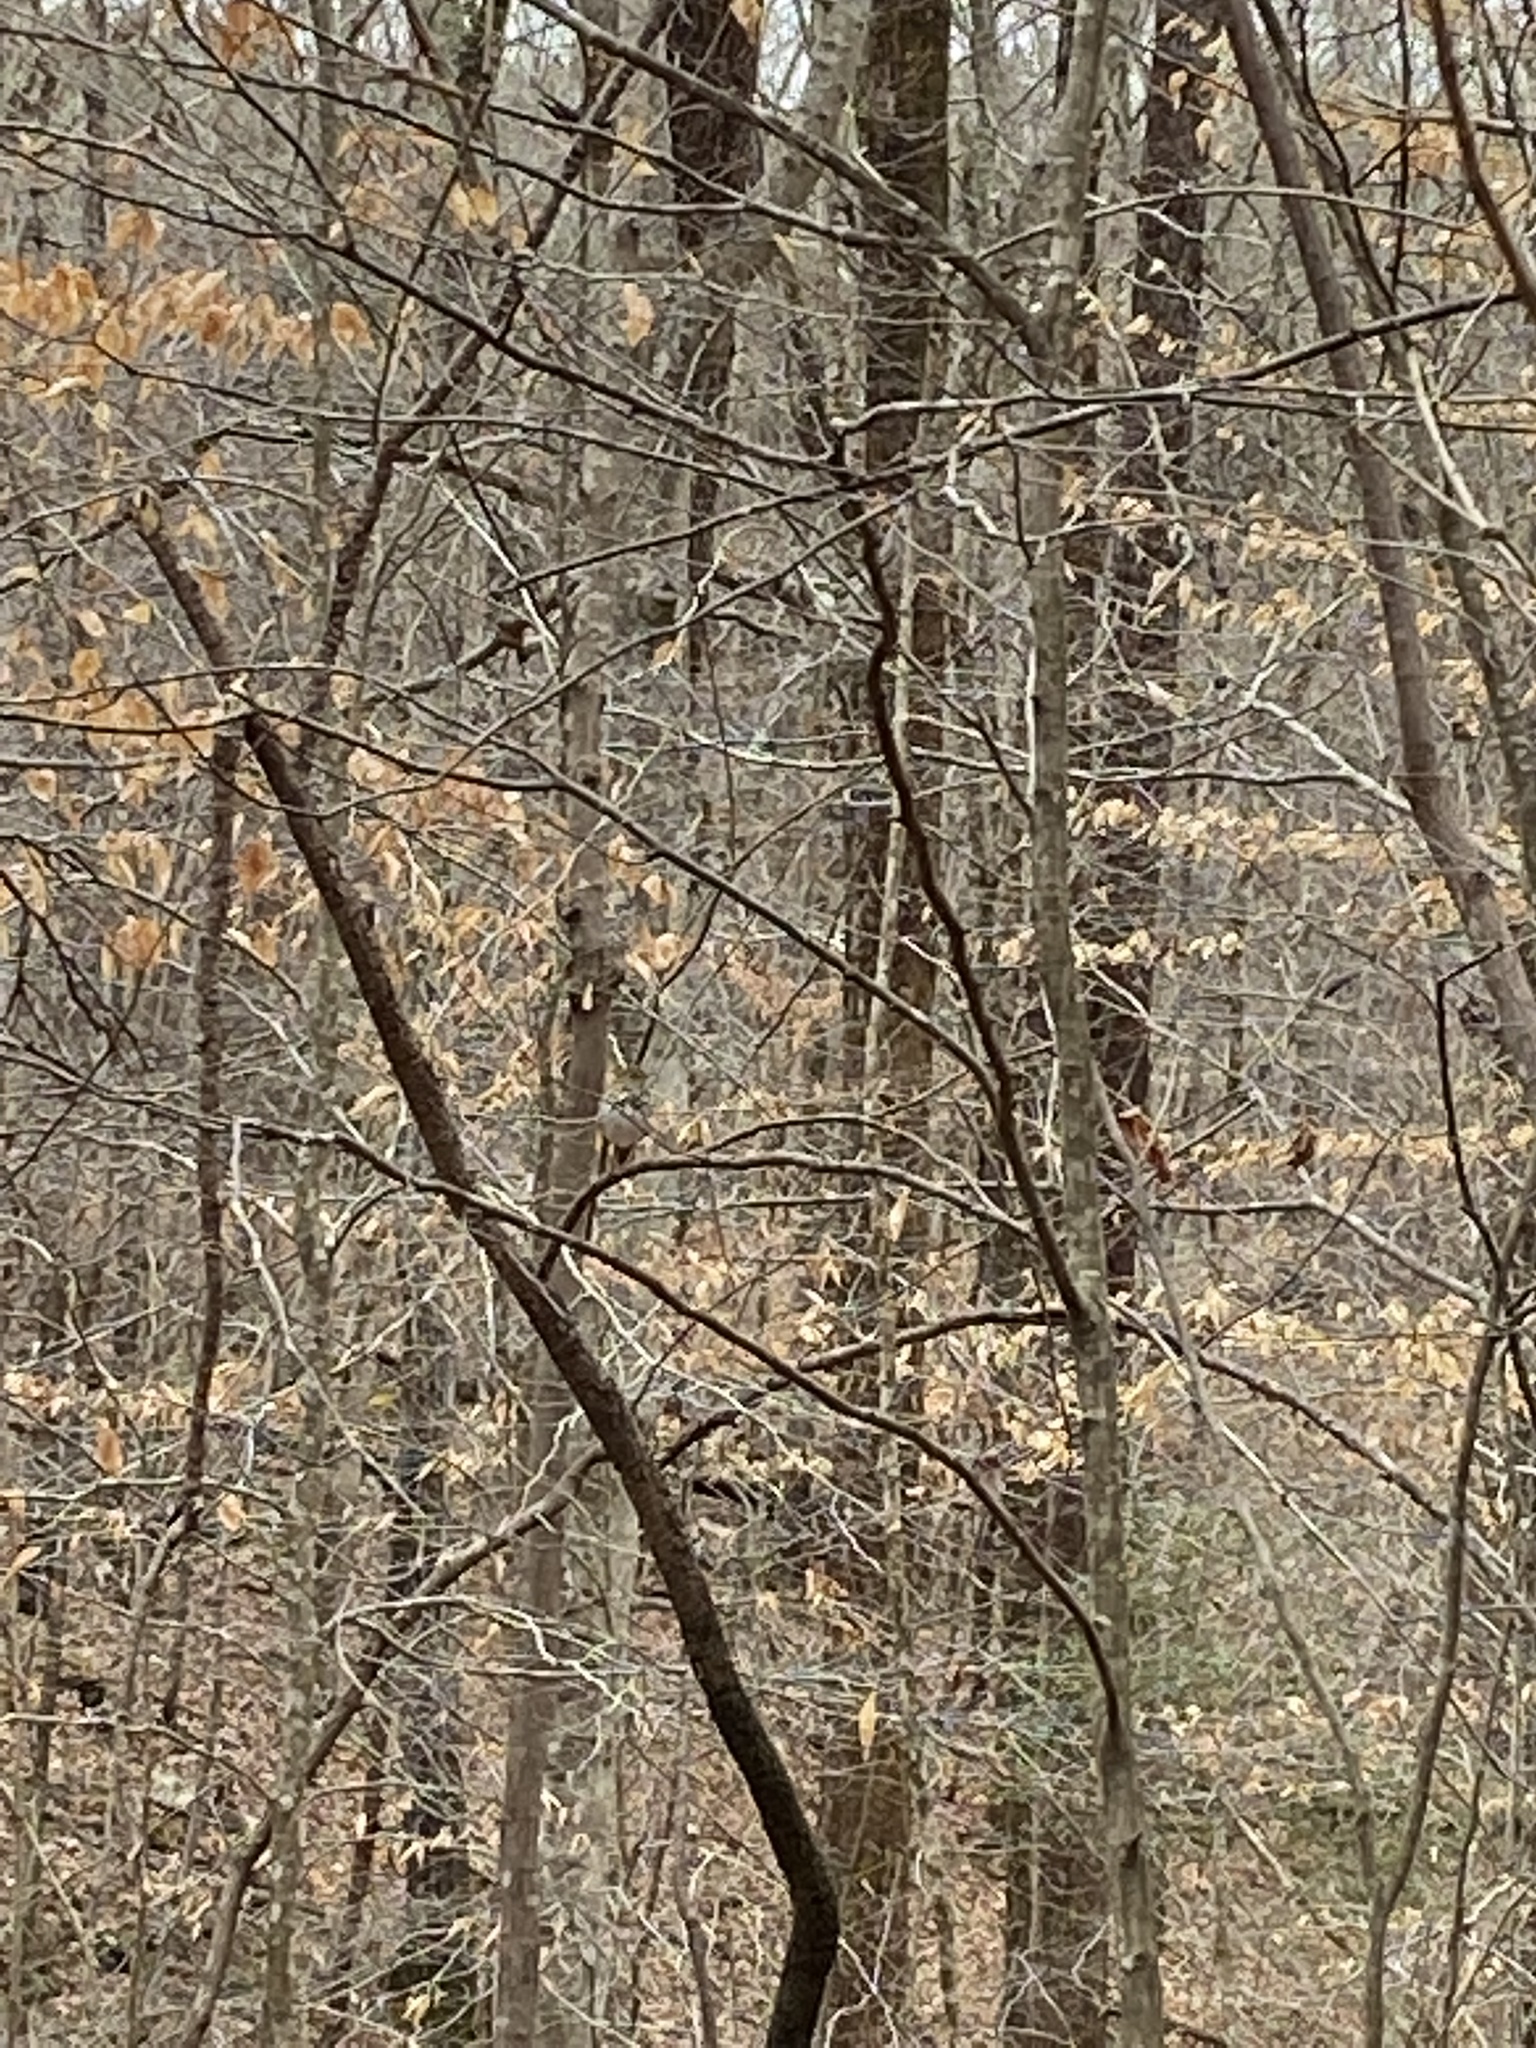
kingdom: Animalia
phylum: Chordata
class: Aves
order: Passeriformes
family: Turdidae
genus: Catharus
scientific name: Catharus guttatus
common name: Hermit thrush
